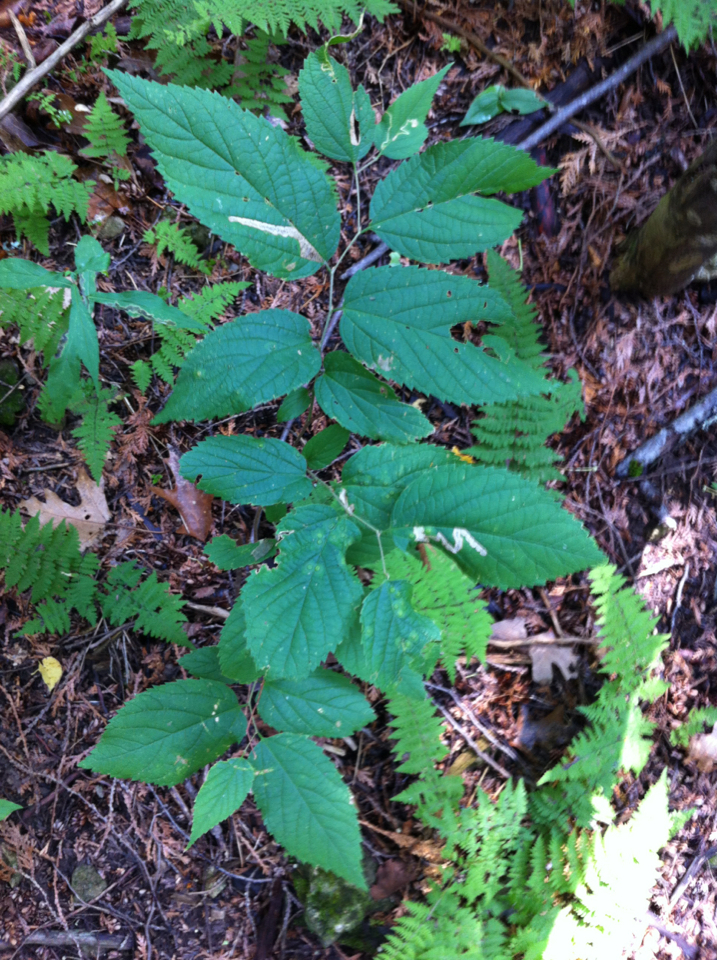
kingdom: Plantae
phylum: Tracheophyta
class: Magnoliopsida
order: Rosales
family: Cannabaceae
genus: Celtis
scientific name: Celtis occidentalis
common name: Common hackberry
